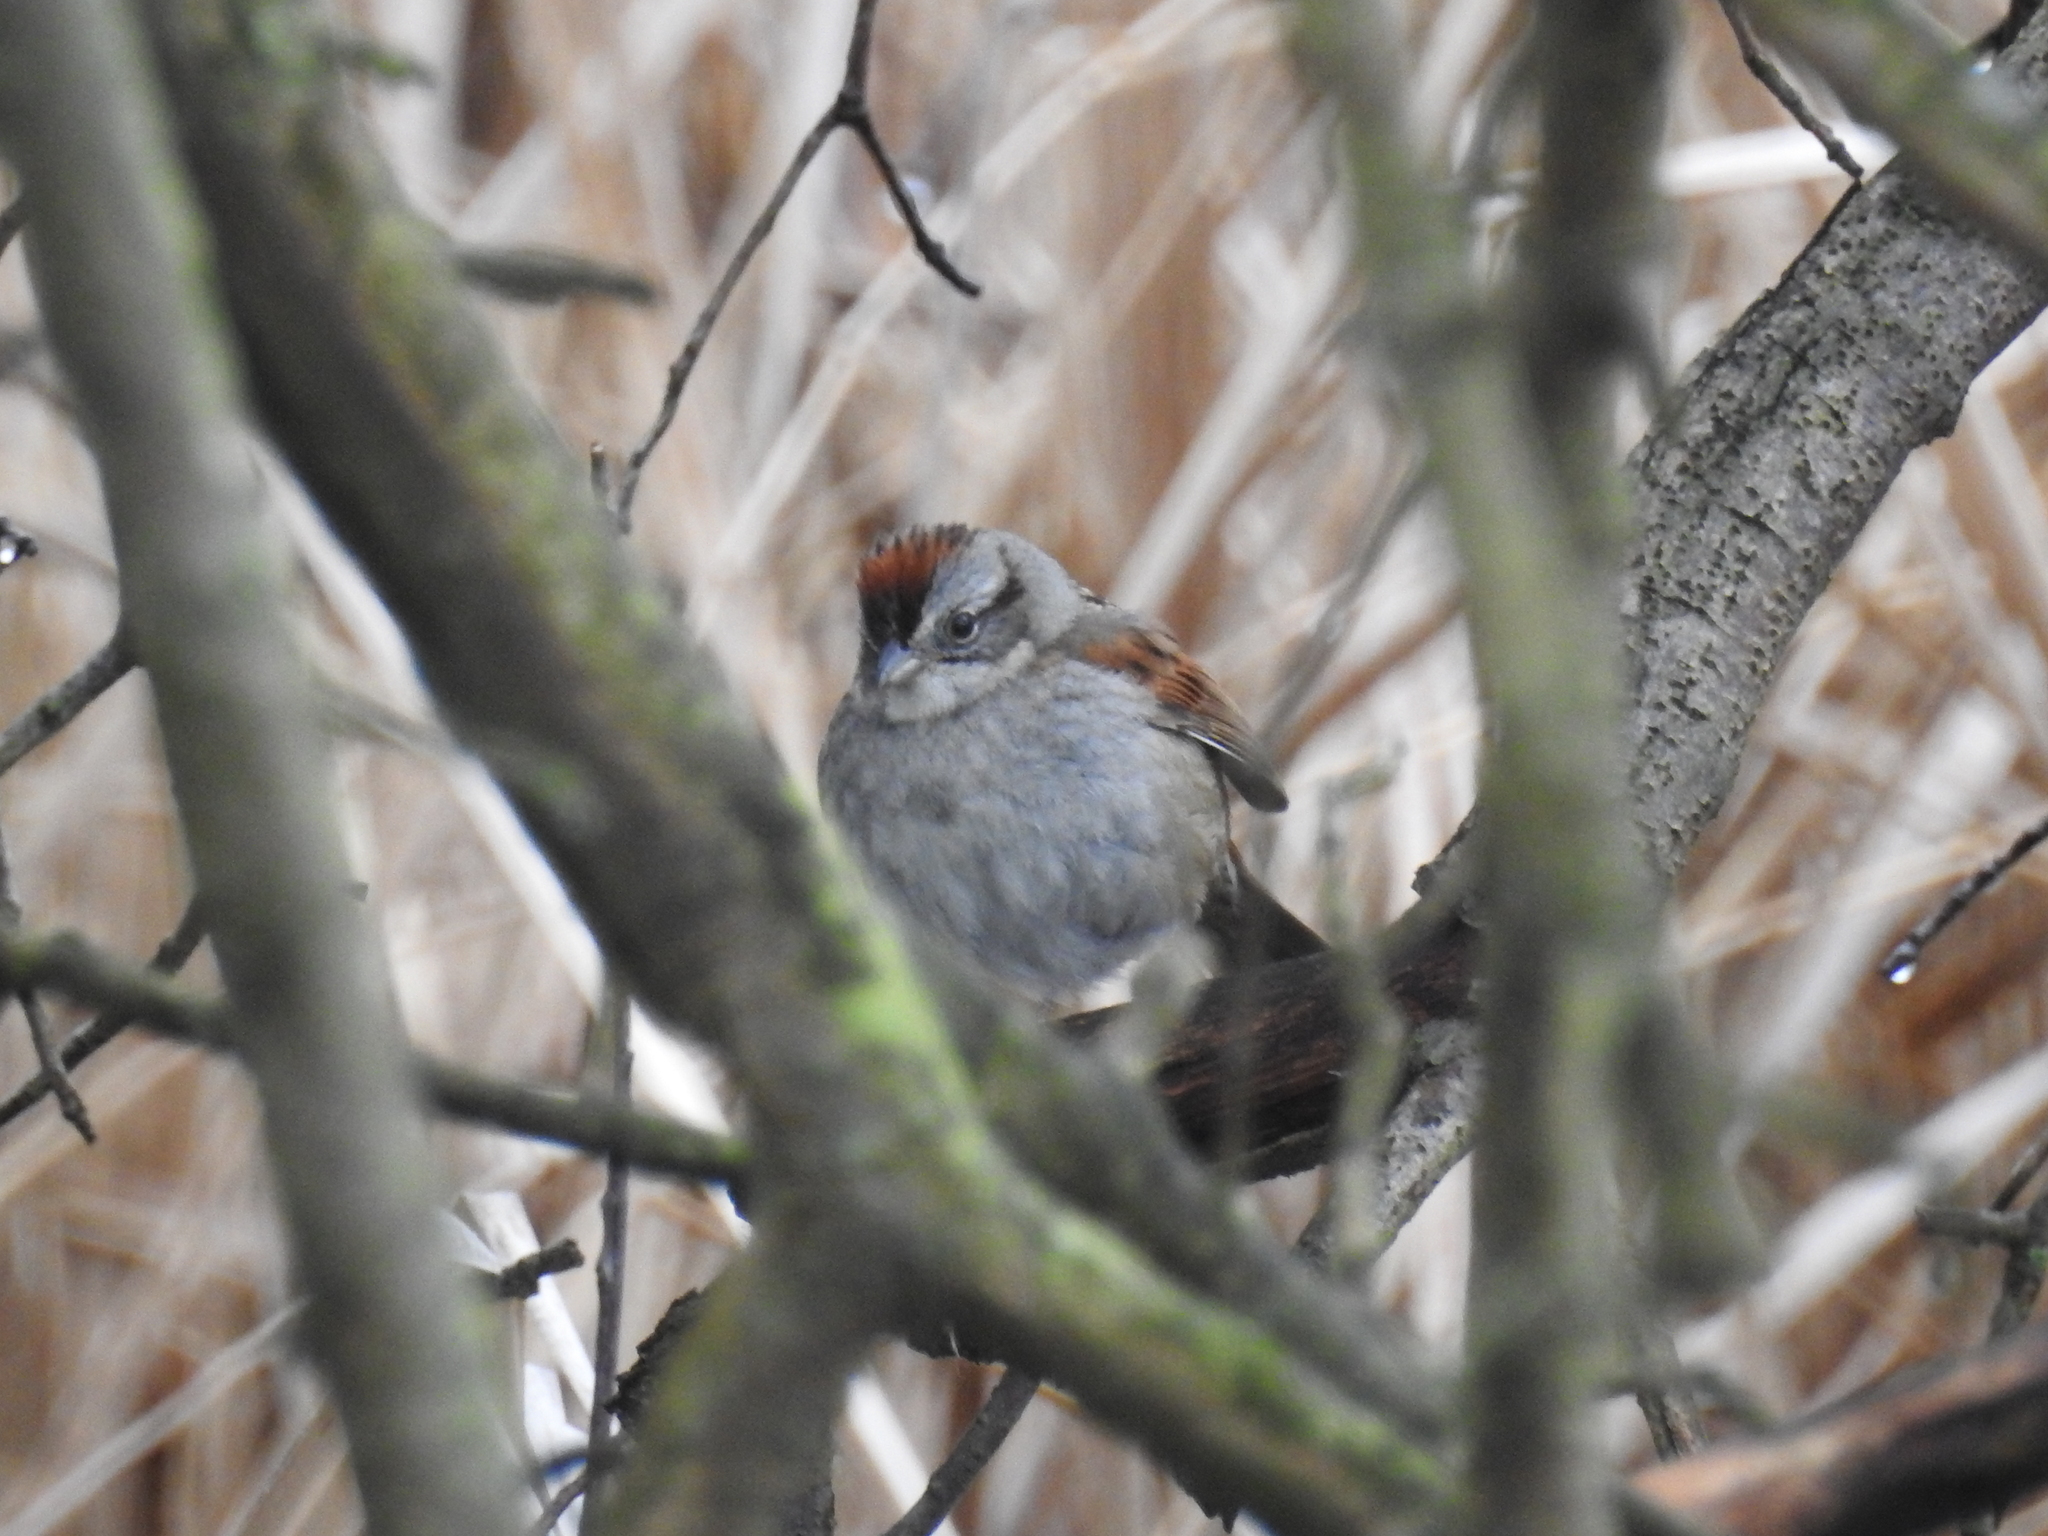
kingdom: Animalia
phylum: Chordata
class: Aves
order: Passeriformes
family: Passerellidae
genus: Melospiza
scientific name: Melospiza georgiana
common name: Swamp sparrow
